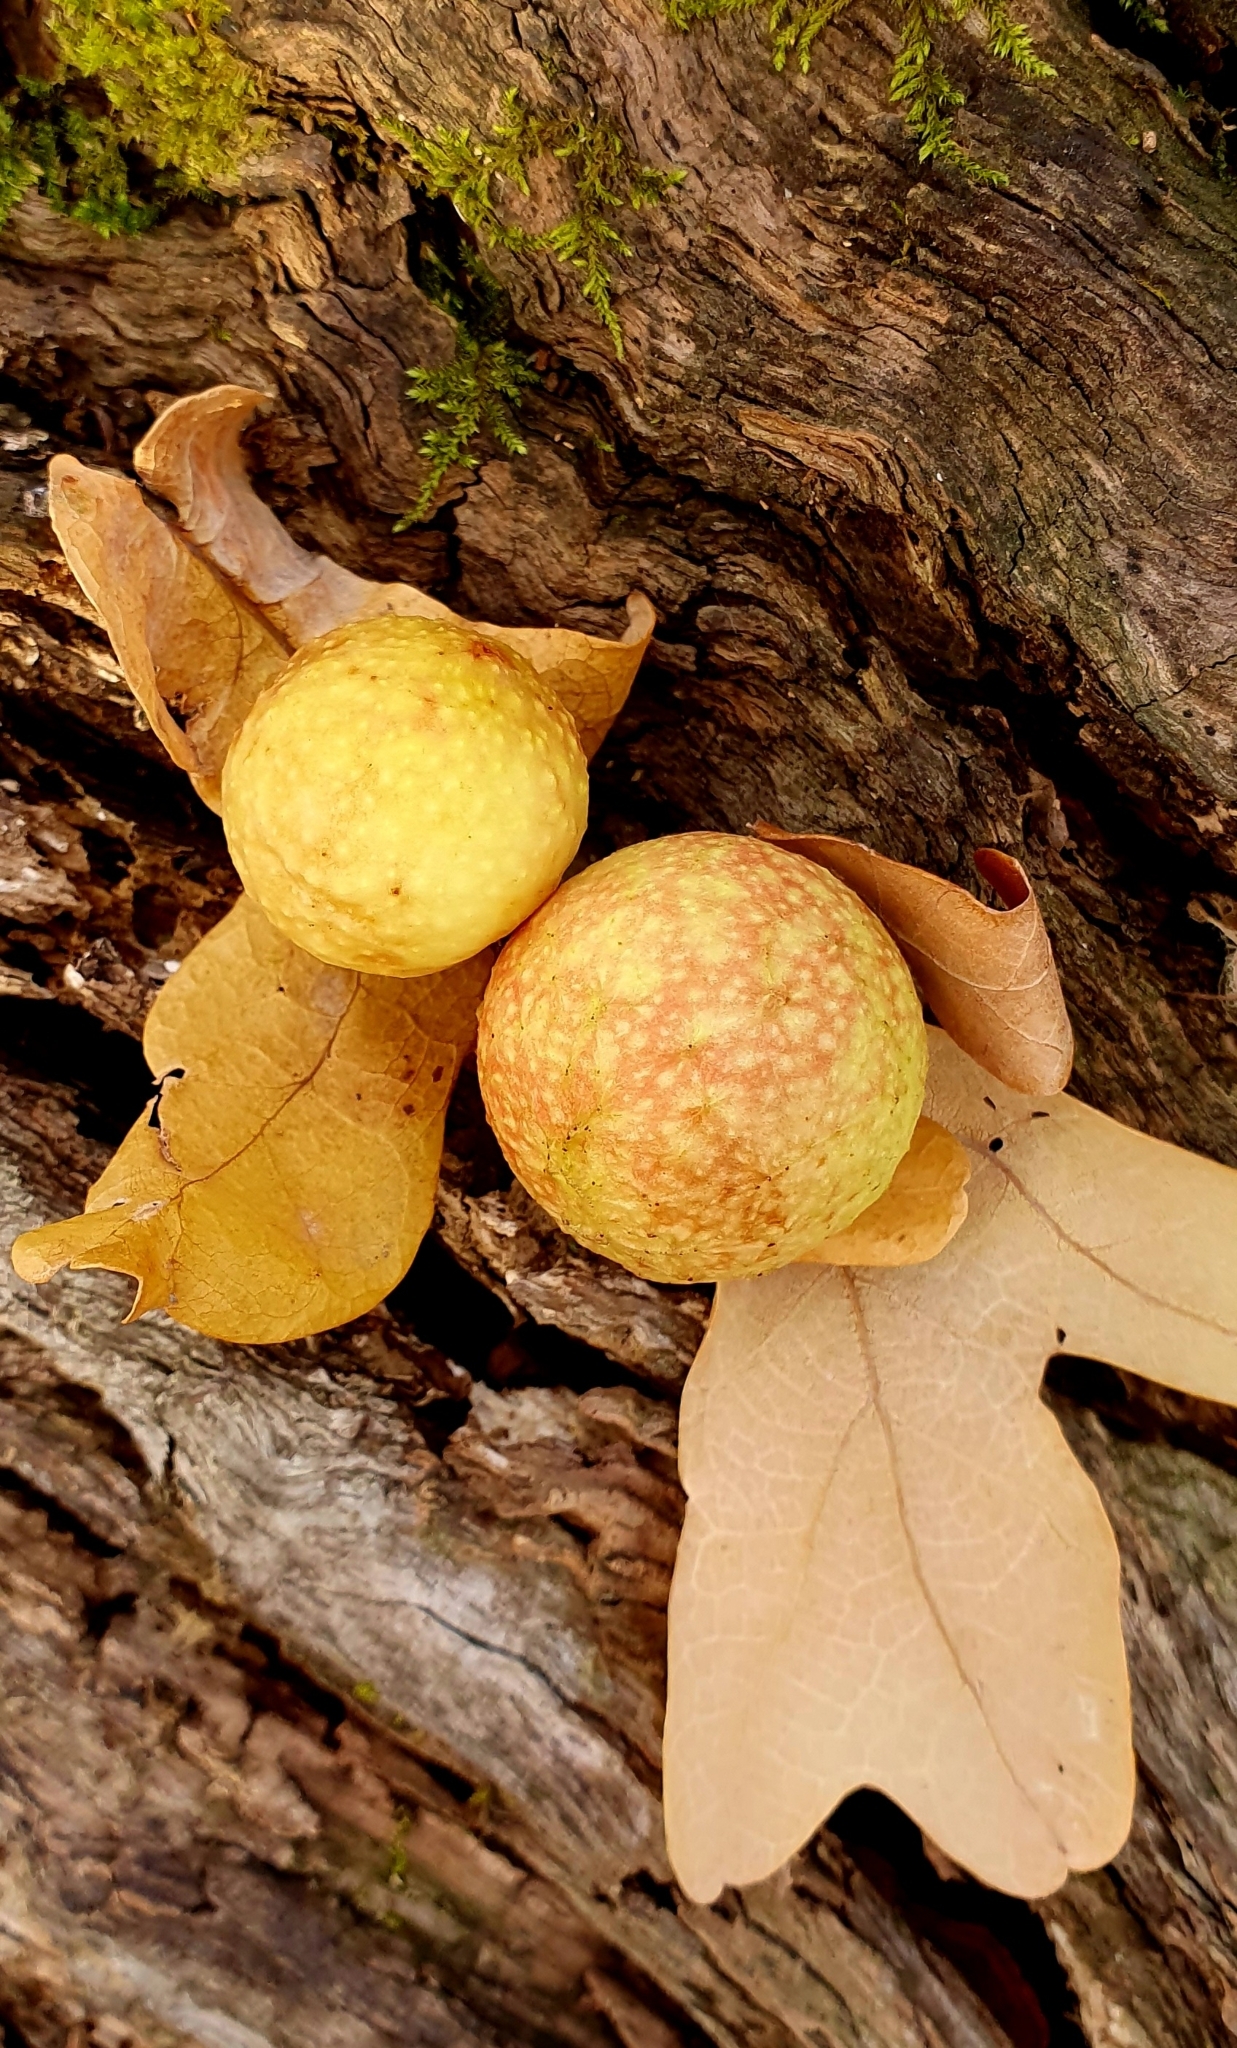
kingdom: Animalia
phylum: Arthropoda
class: Insecta
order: Hymenoptera
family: Cynipidae
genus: Cynips
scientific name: Cynips quercusfolii
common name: Cherry gall
